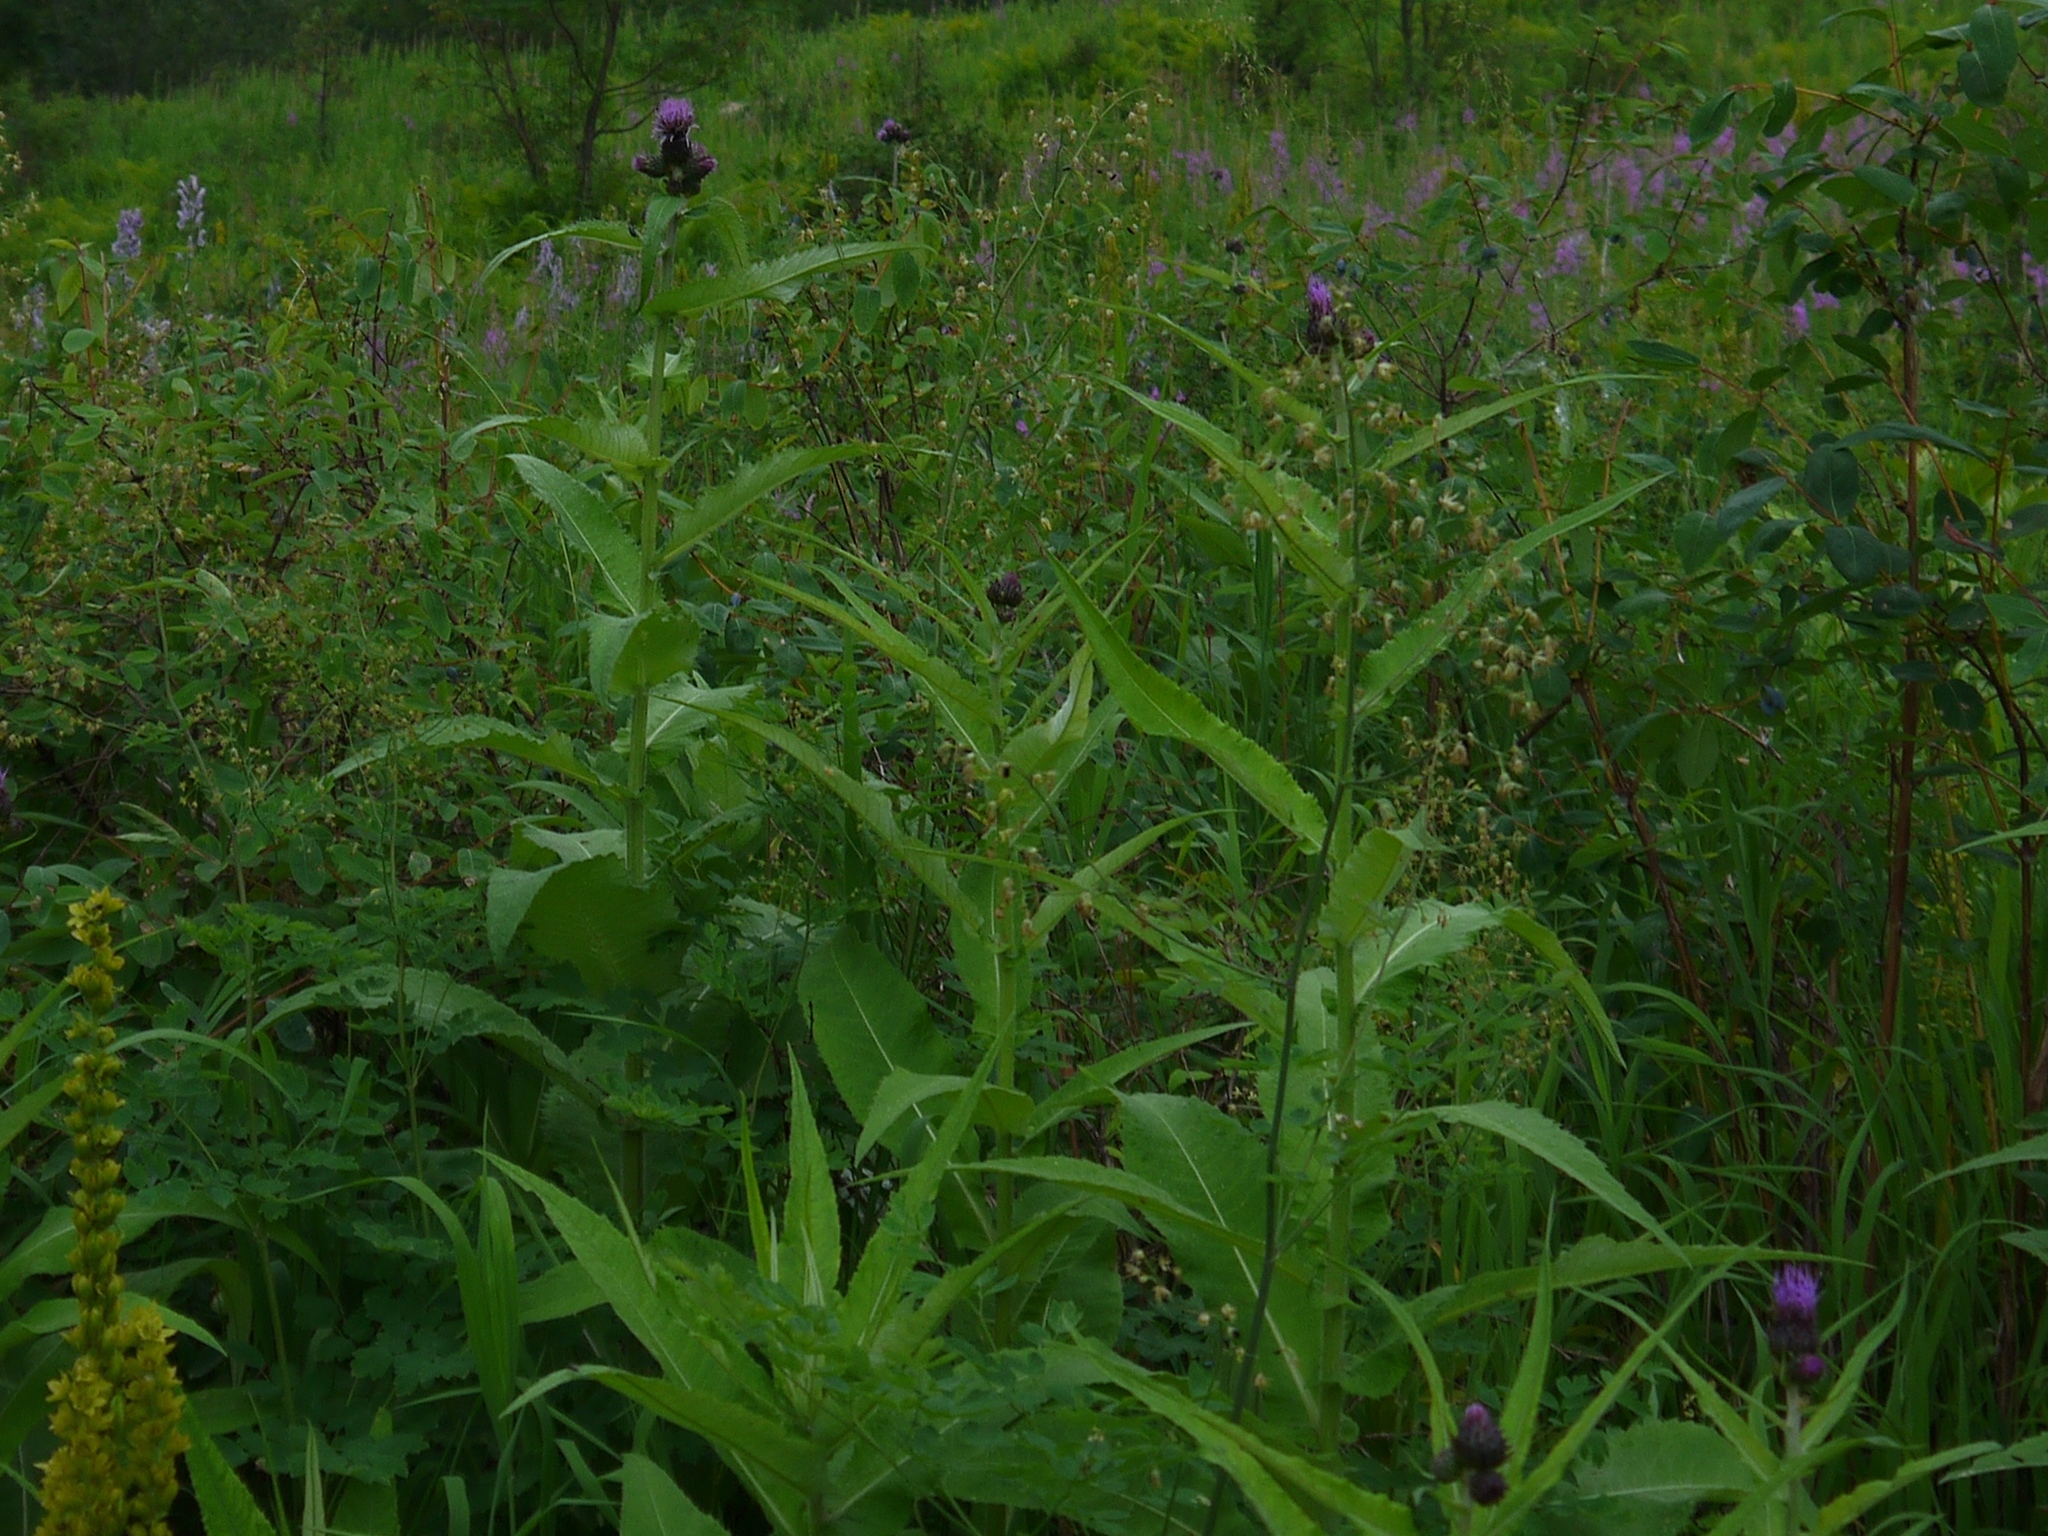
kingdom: Plantae
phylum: Tracheophyta
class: Magnoliopsida
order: Asterales
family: Asteraceae
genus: Cirsium
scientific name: Cirsium helenioides
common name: Melancholy thistle
